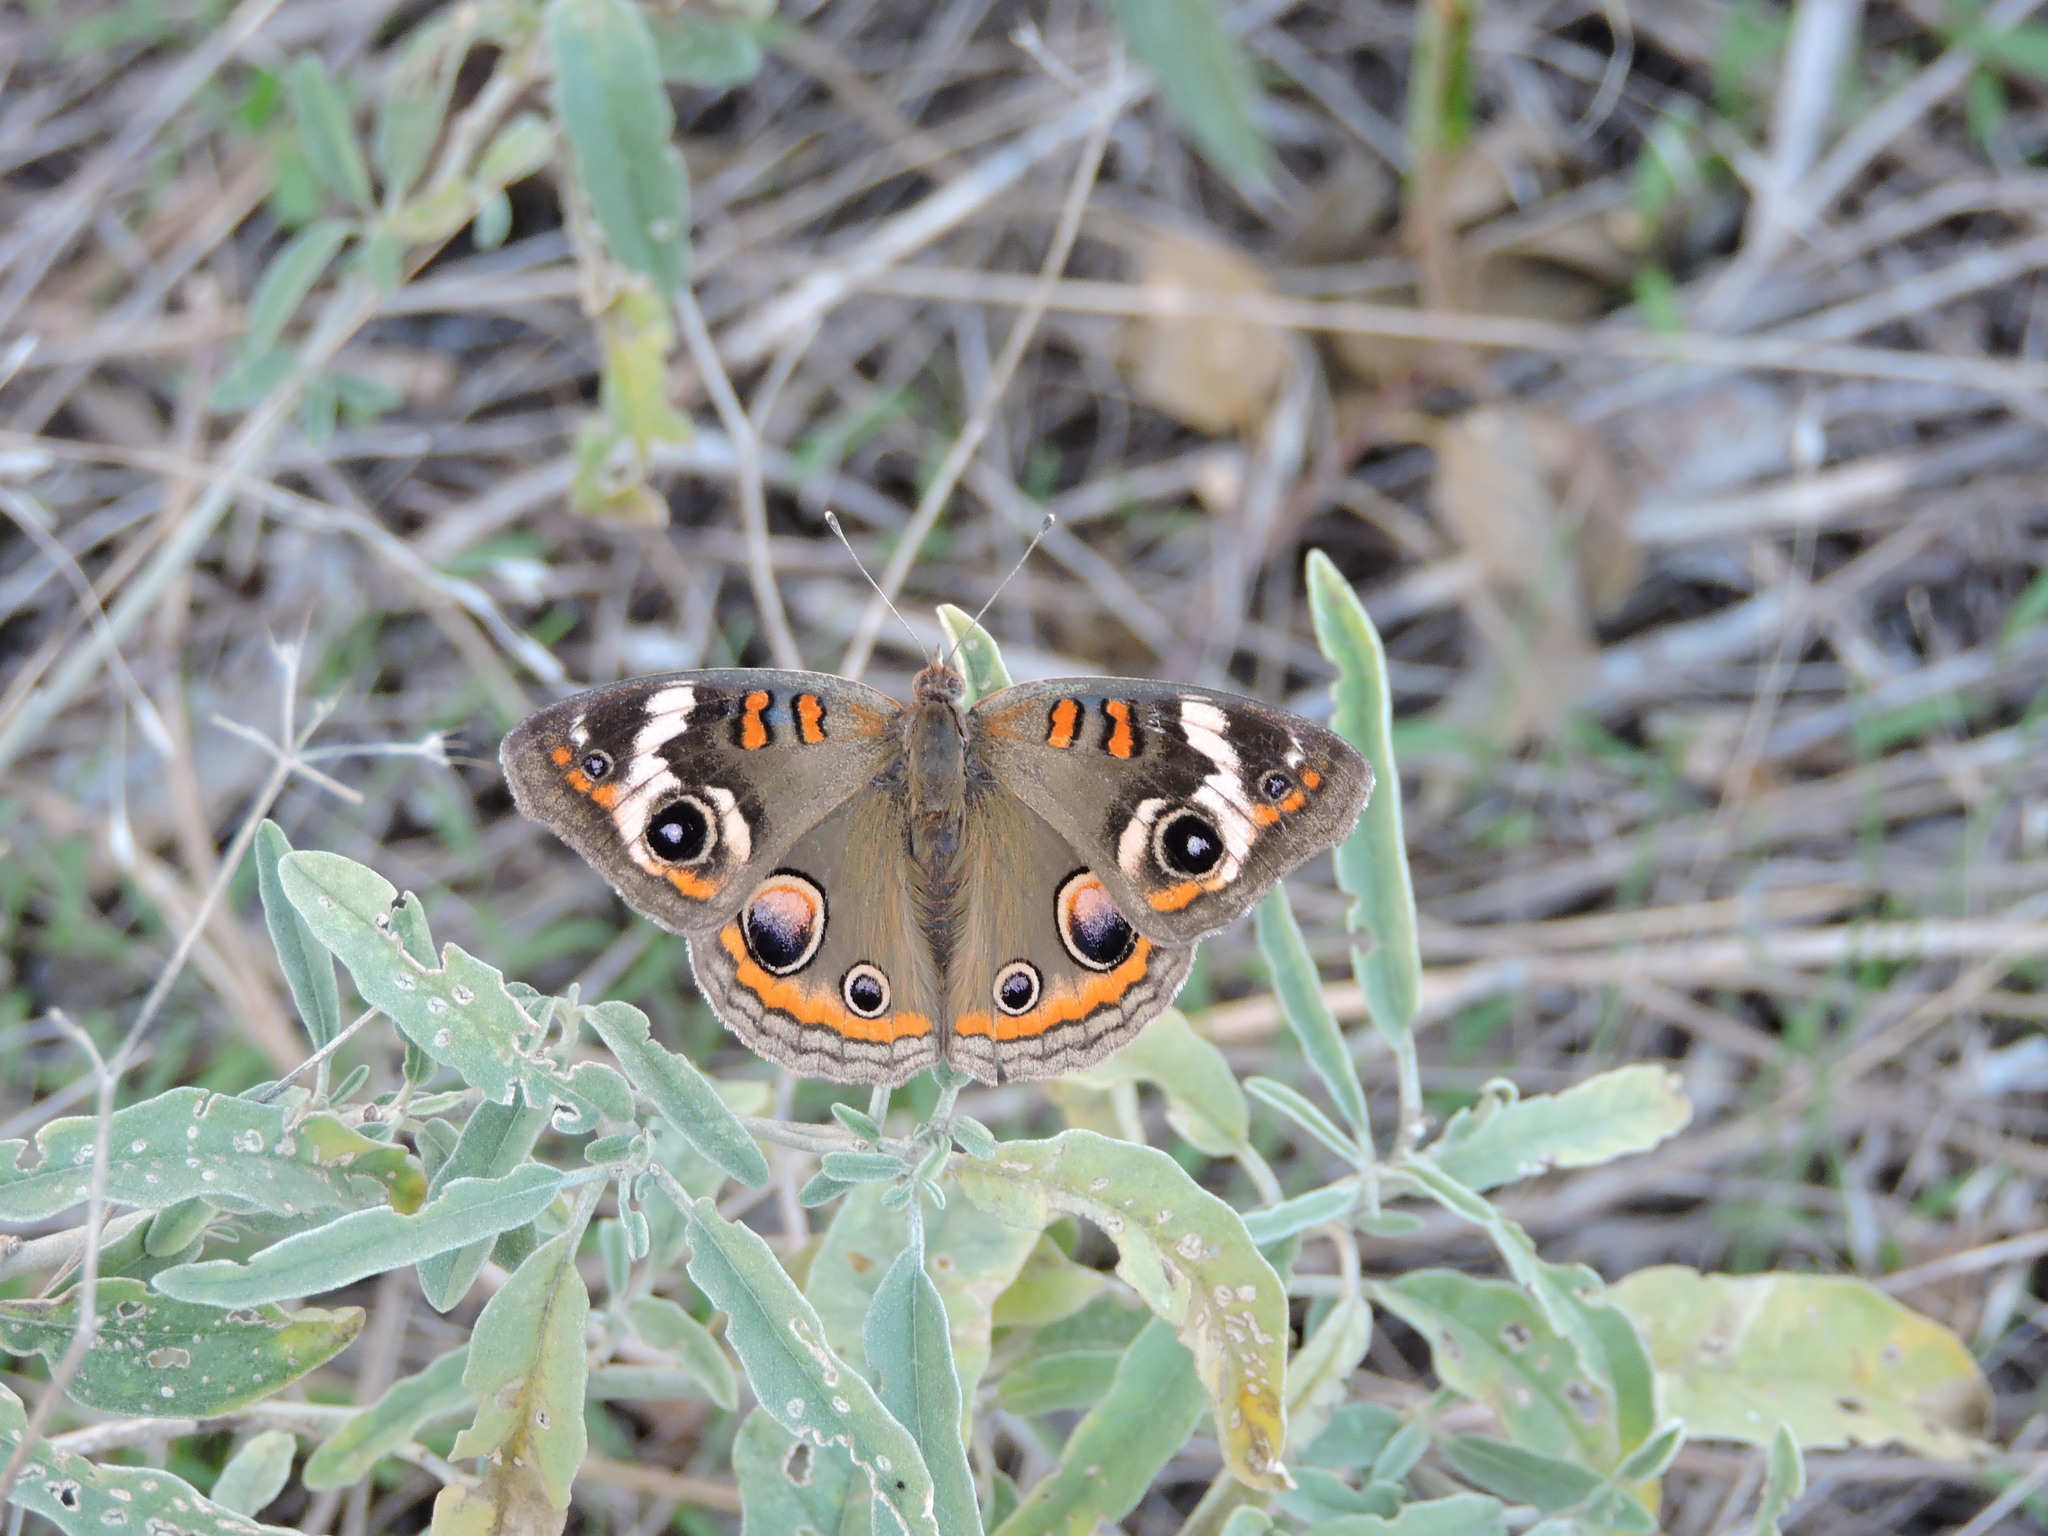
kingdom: Animalia
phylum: Arthropoda
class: Insecta
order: Lepidoptera
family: Nymphalidae
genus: Junonia
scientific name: Junonia coenia
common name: Common buckeye
